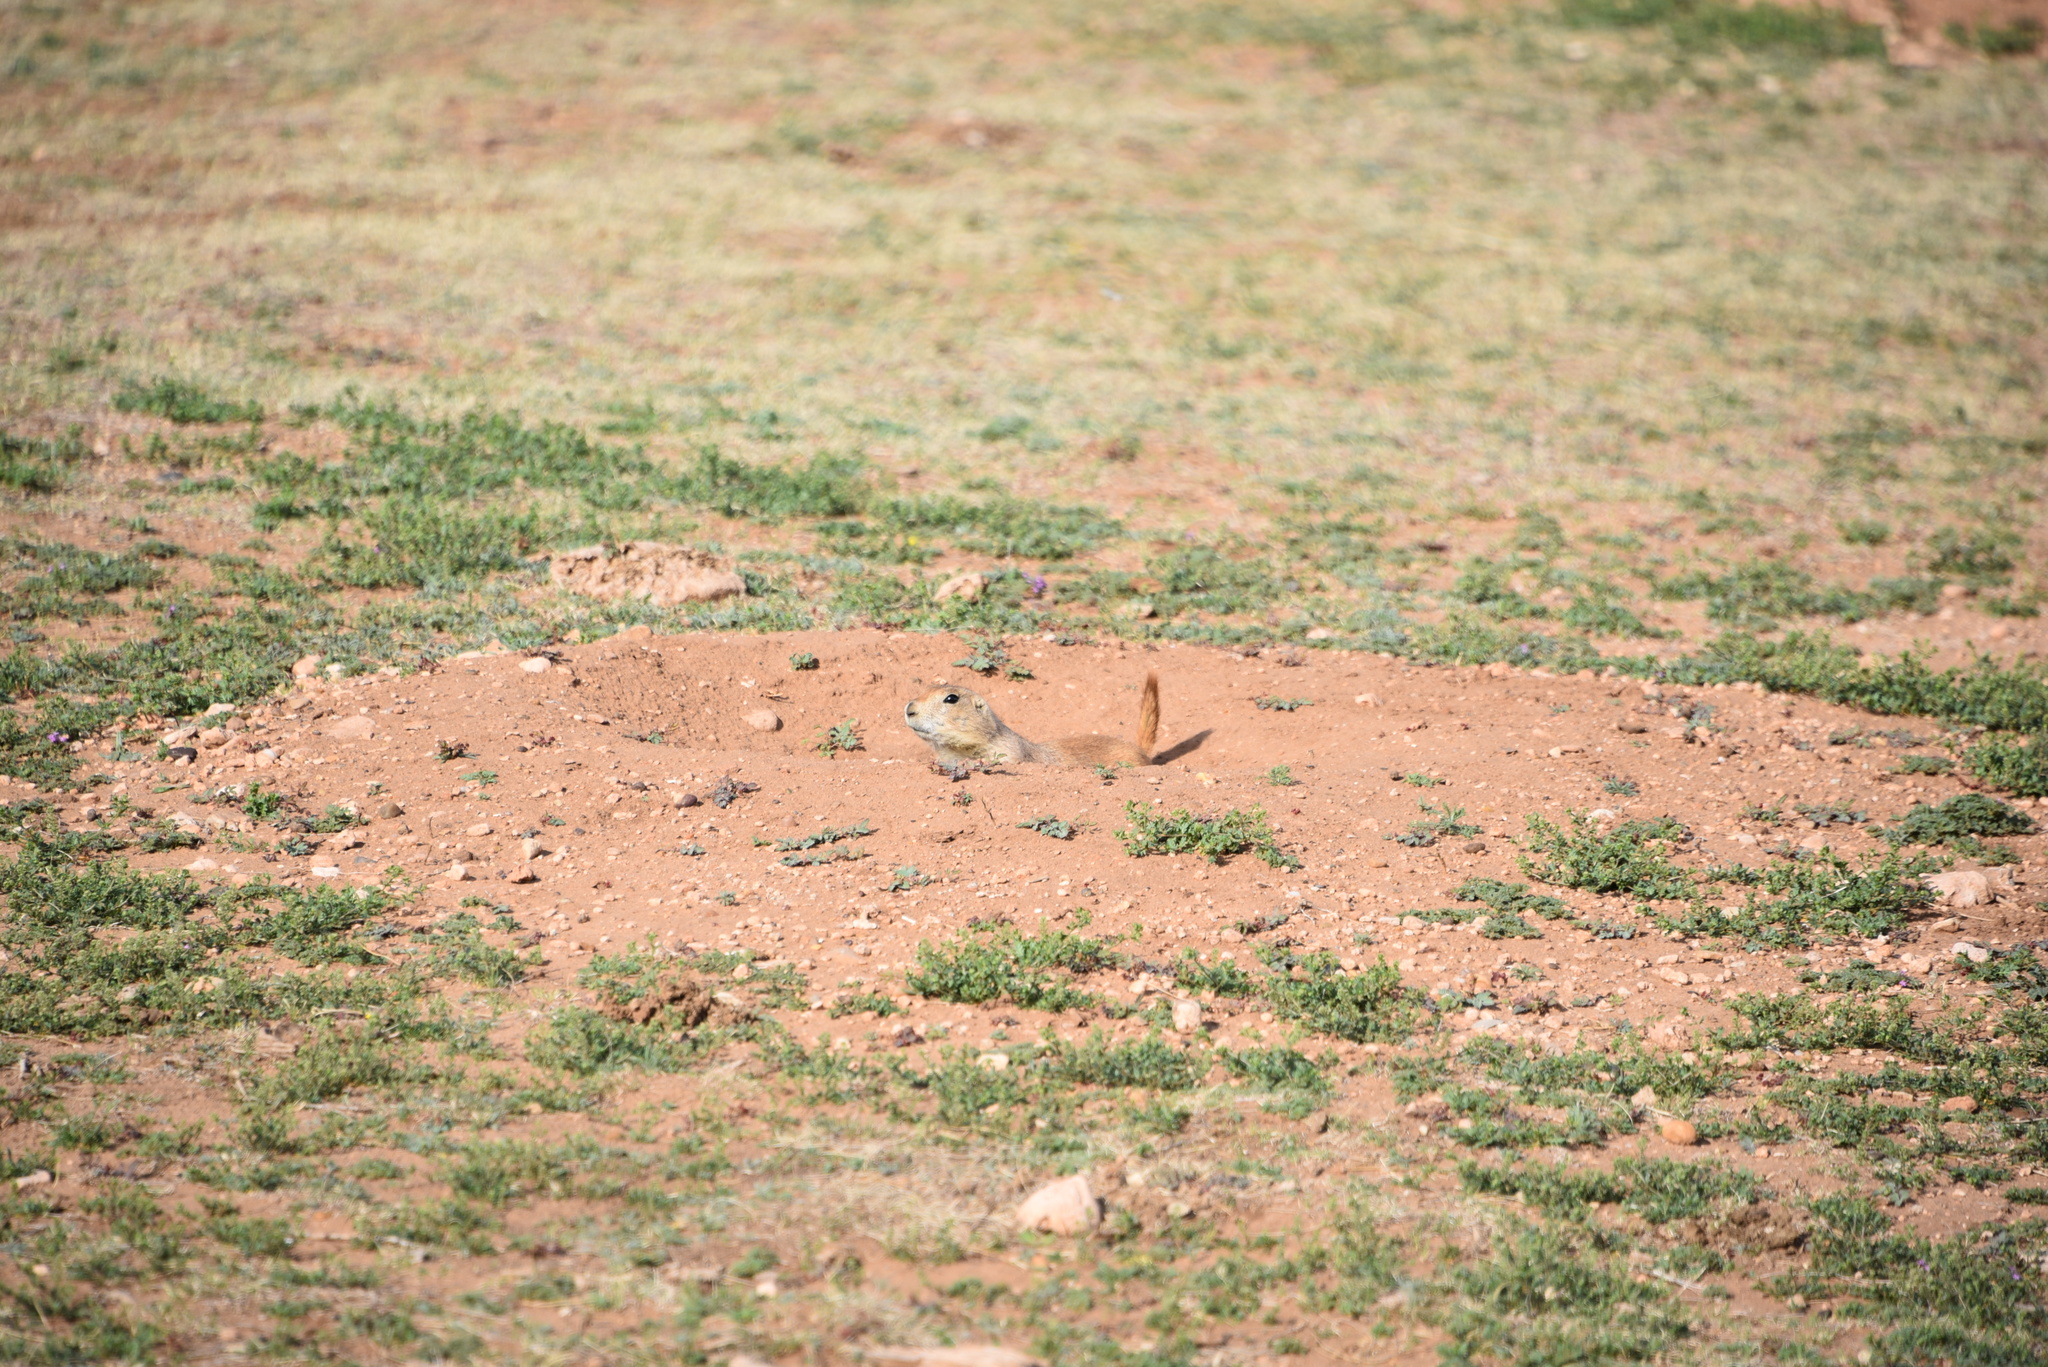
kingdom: Animalia
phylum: Chordata
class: Mammalia
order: Rodentia
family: Sciuridae
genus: Cynomys
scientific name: Cynomys ludovicianus
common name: Black-tailed prairie dog
